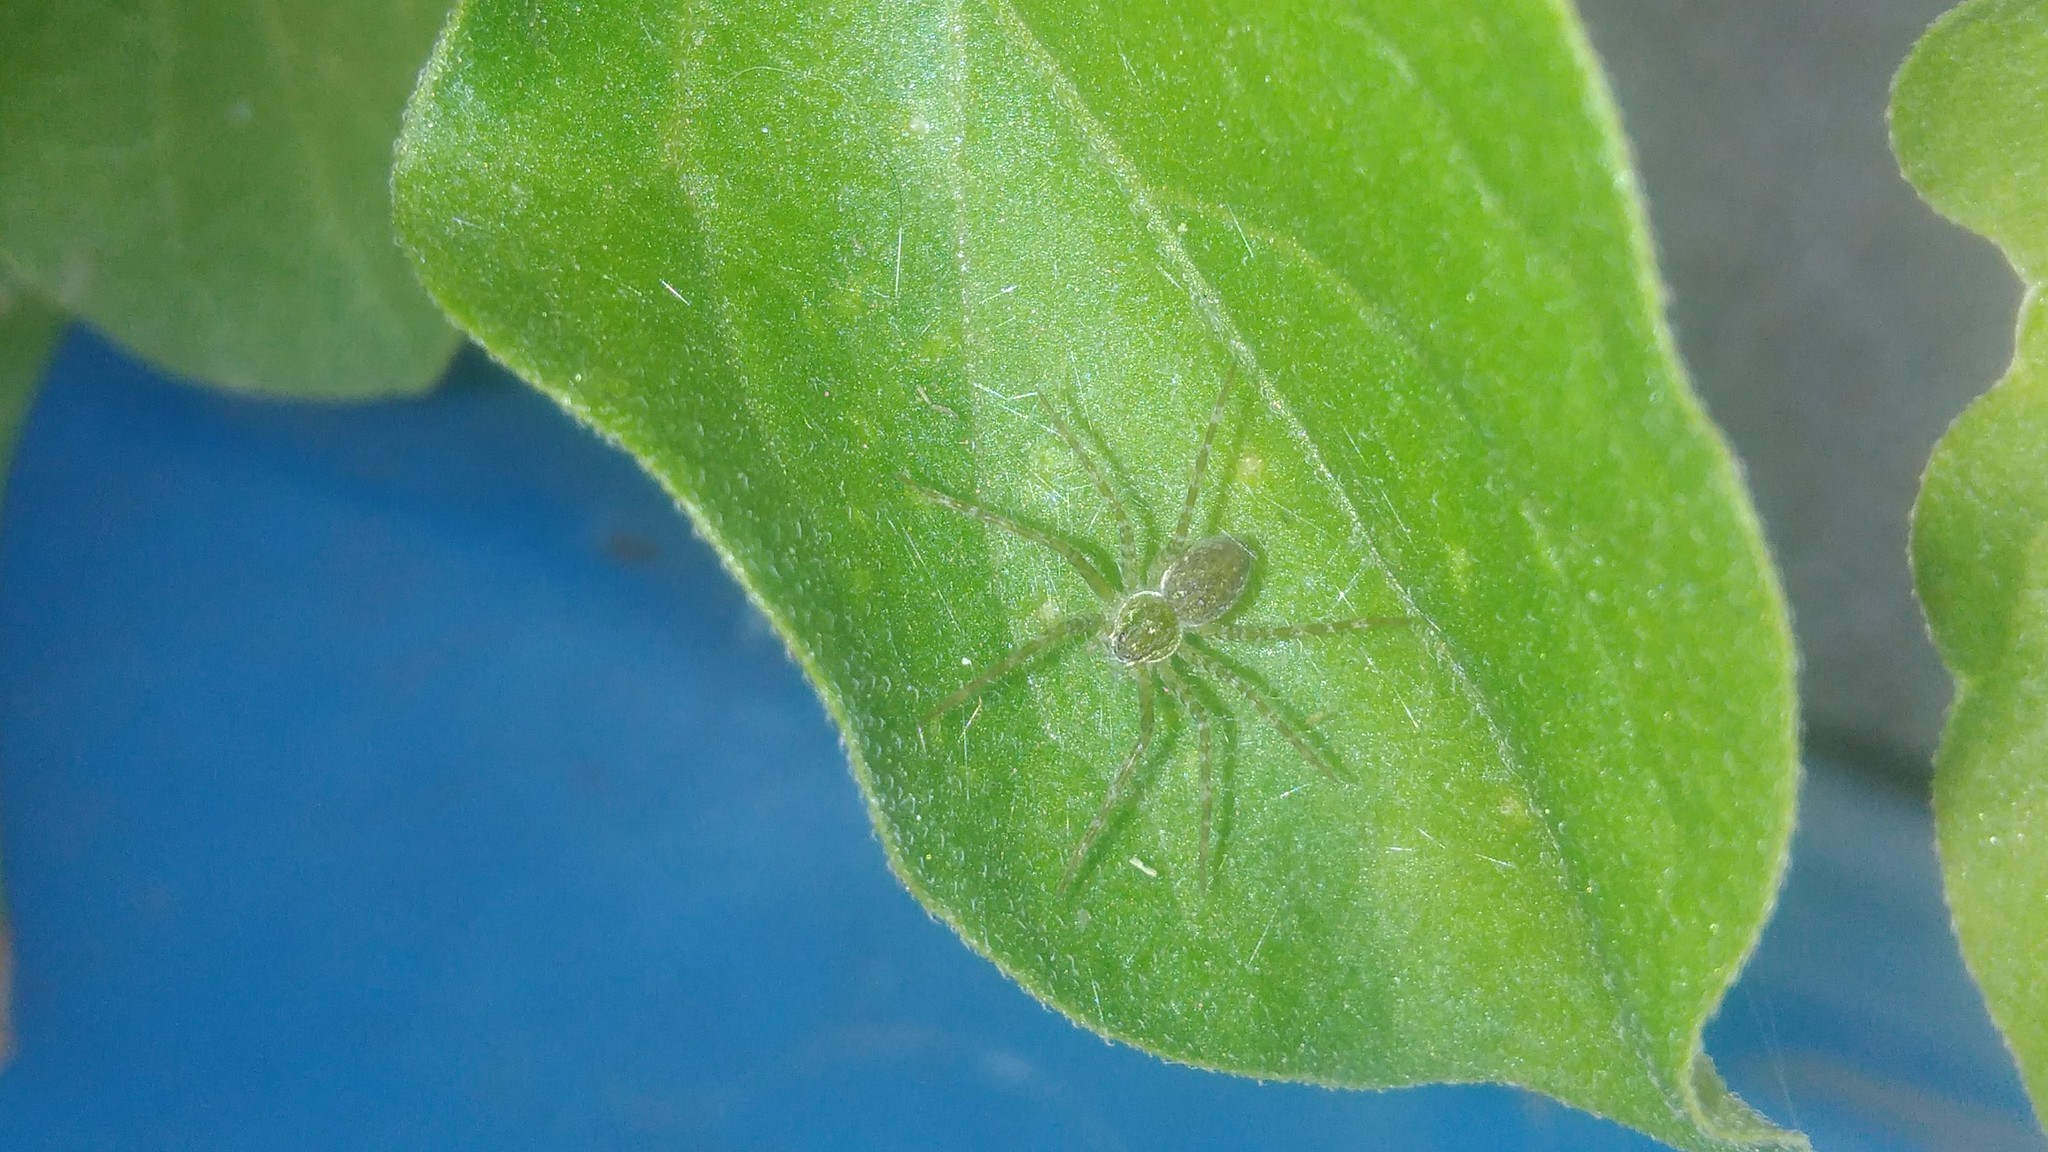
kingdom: Animalia
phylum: Arthropoda
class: Arachnida
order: Araneae
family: Pisauridae
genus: Thaumasia
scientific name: Thaumasia velox
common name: Nursery web spiders
